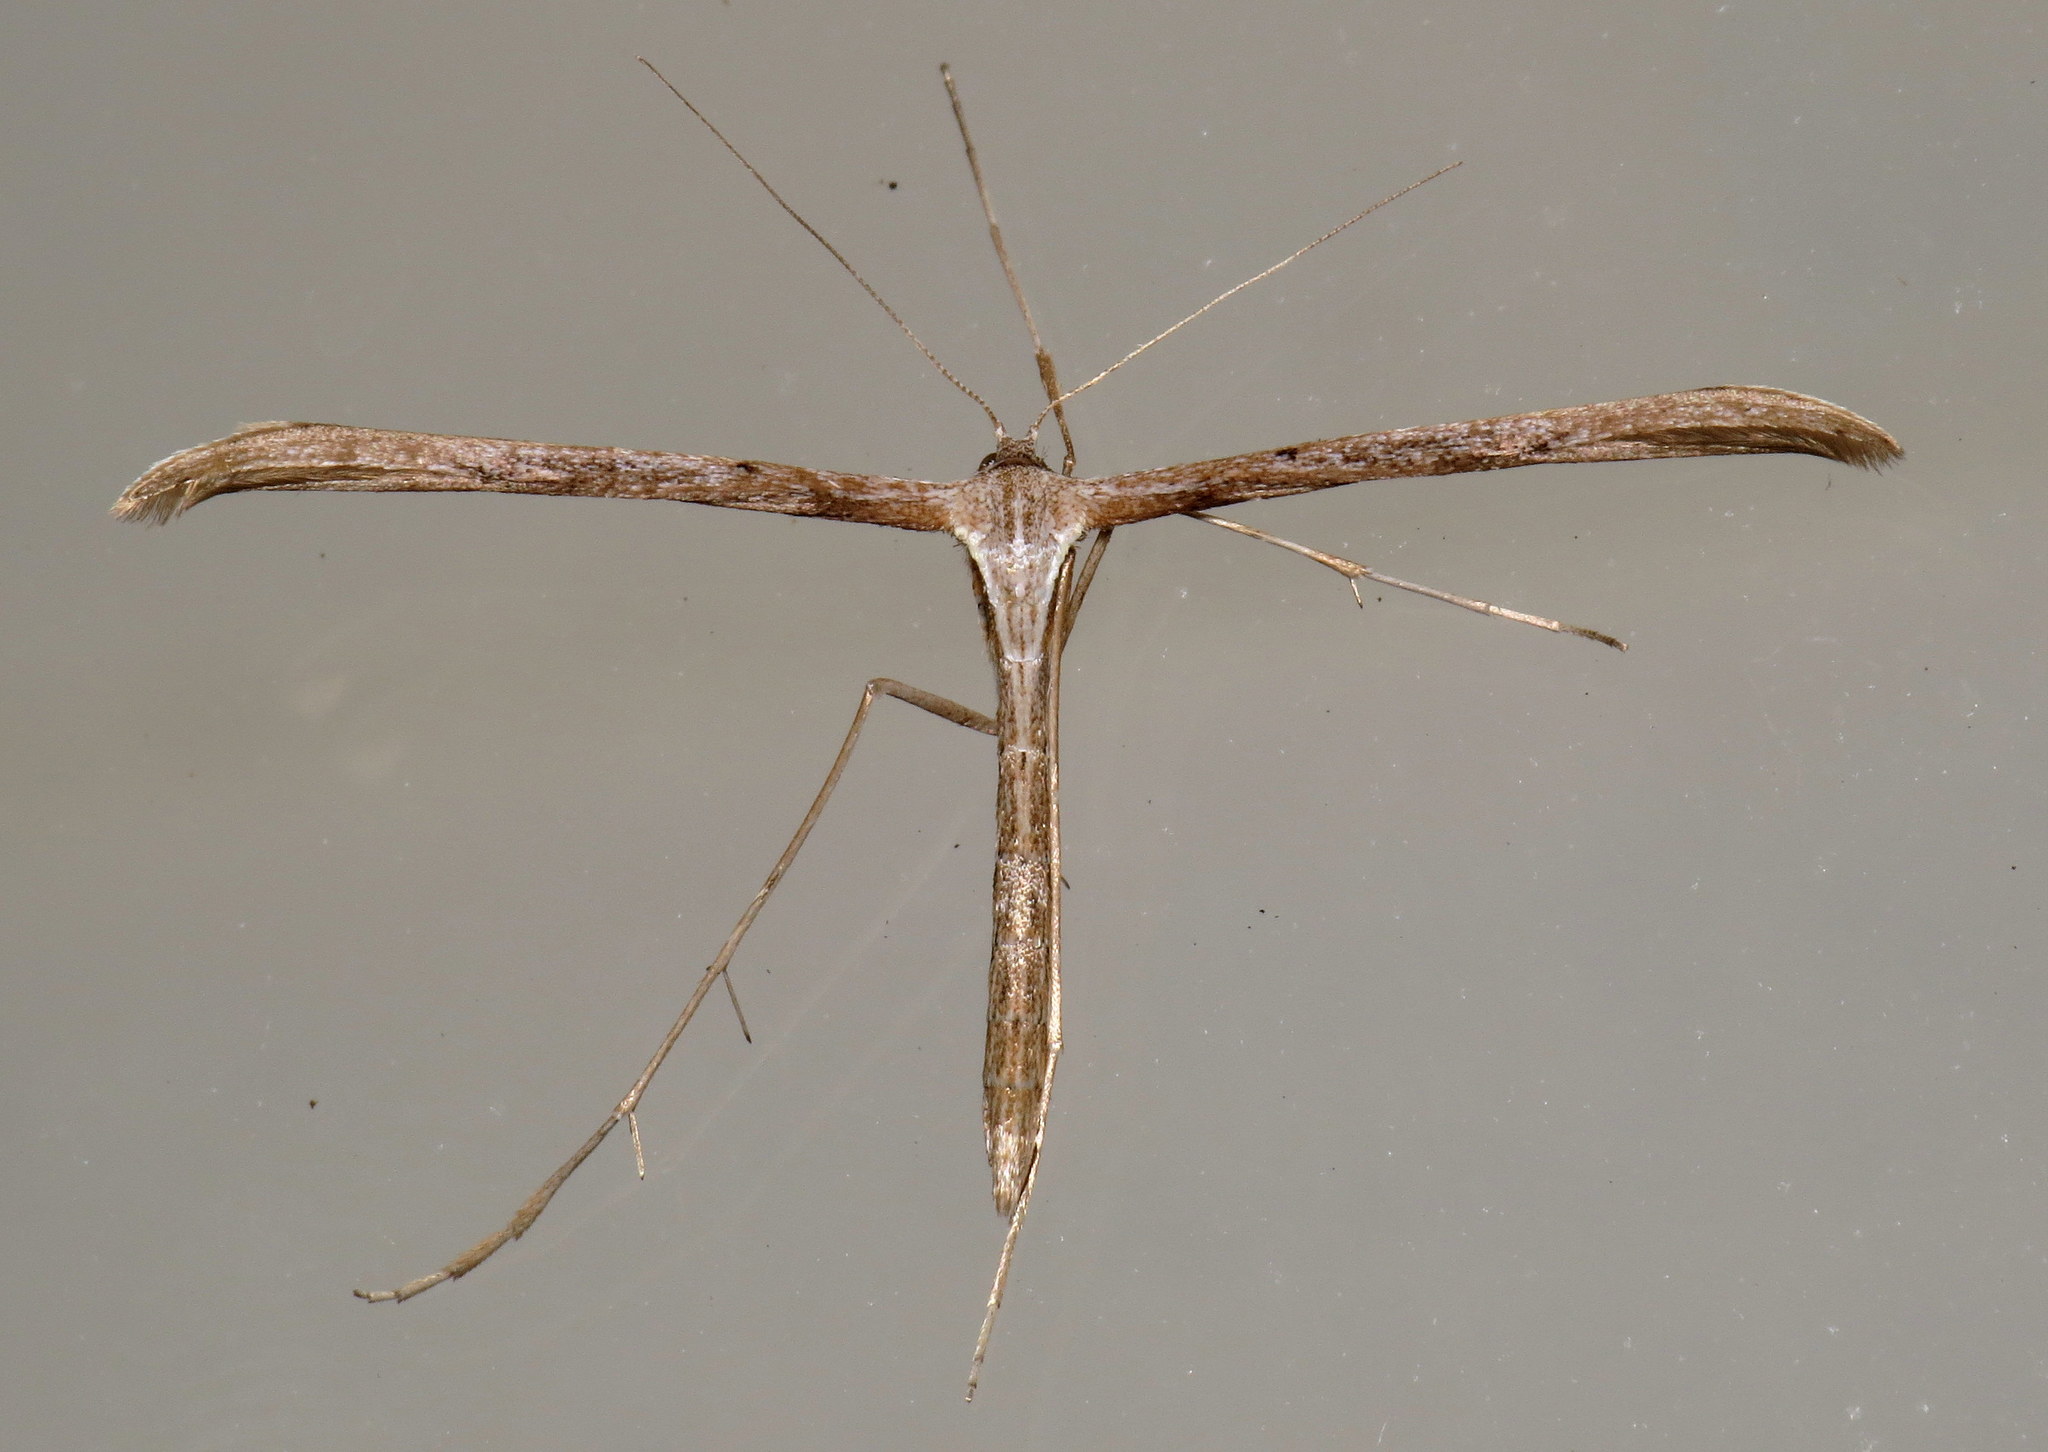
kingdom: Animalia
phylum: Arthropoda
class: Insecta
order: Lepidoptera
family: Pterophoridae
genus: Emmelina
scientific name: Emmelina monodactyla
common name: Common plume
